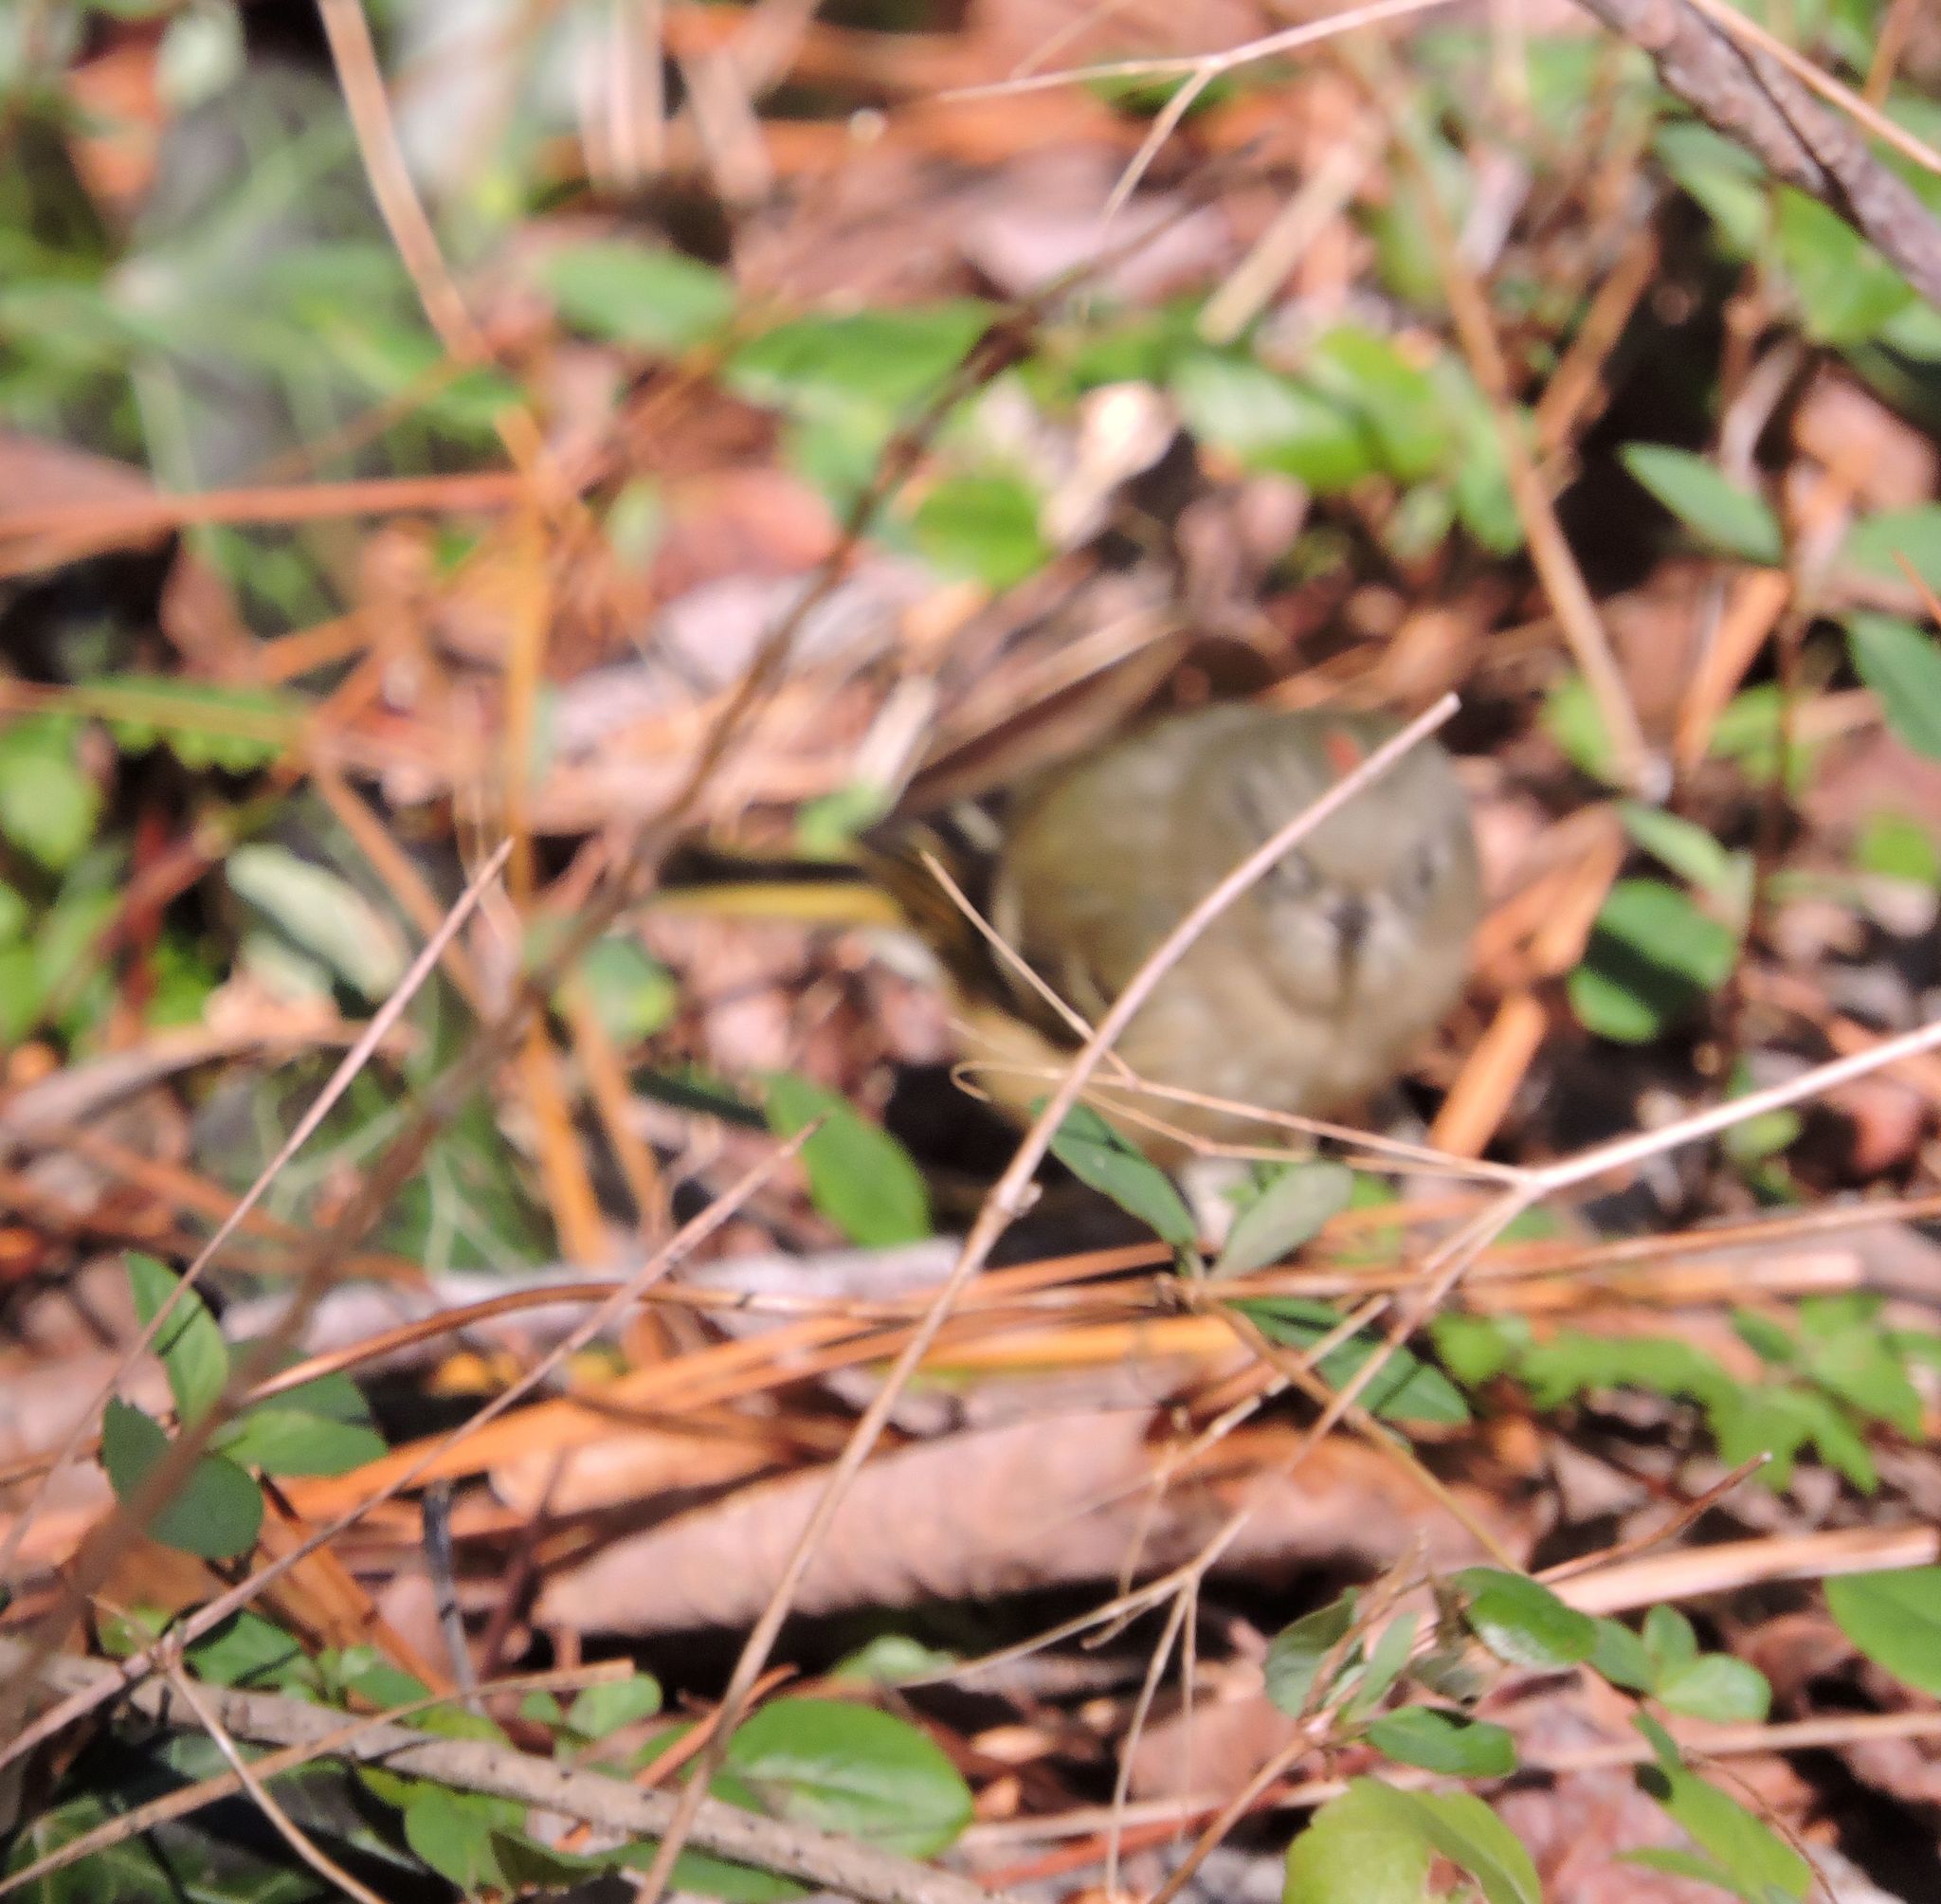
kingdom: Animalia
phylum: Chordata
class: Aves
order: Passeriformes
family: Regulidae
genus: Regulus
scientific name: Regulus calendula
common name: Ruby-crowned kinglet
